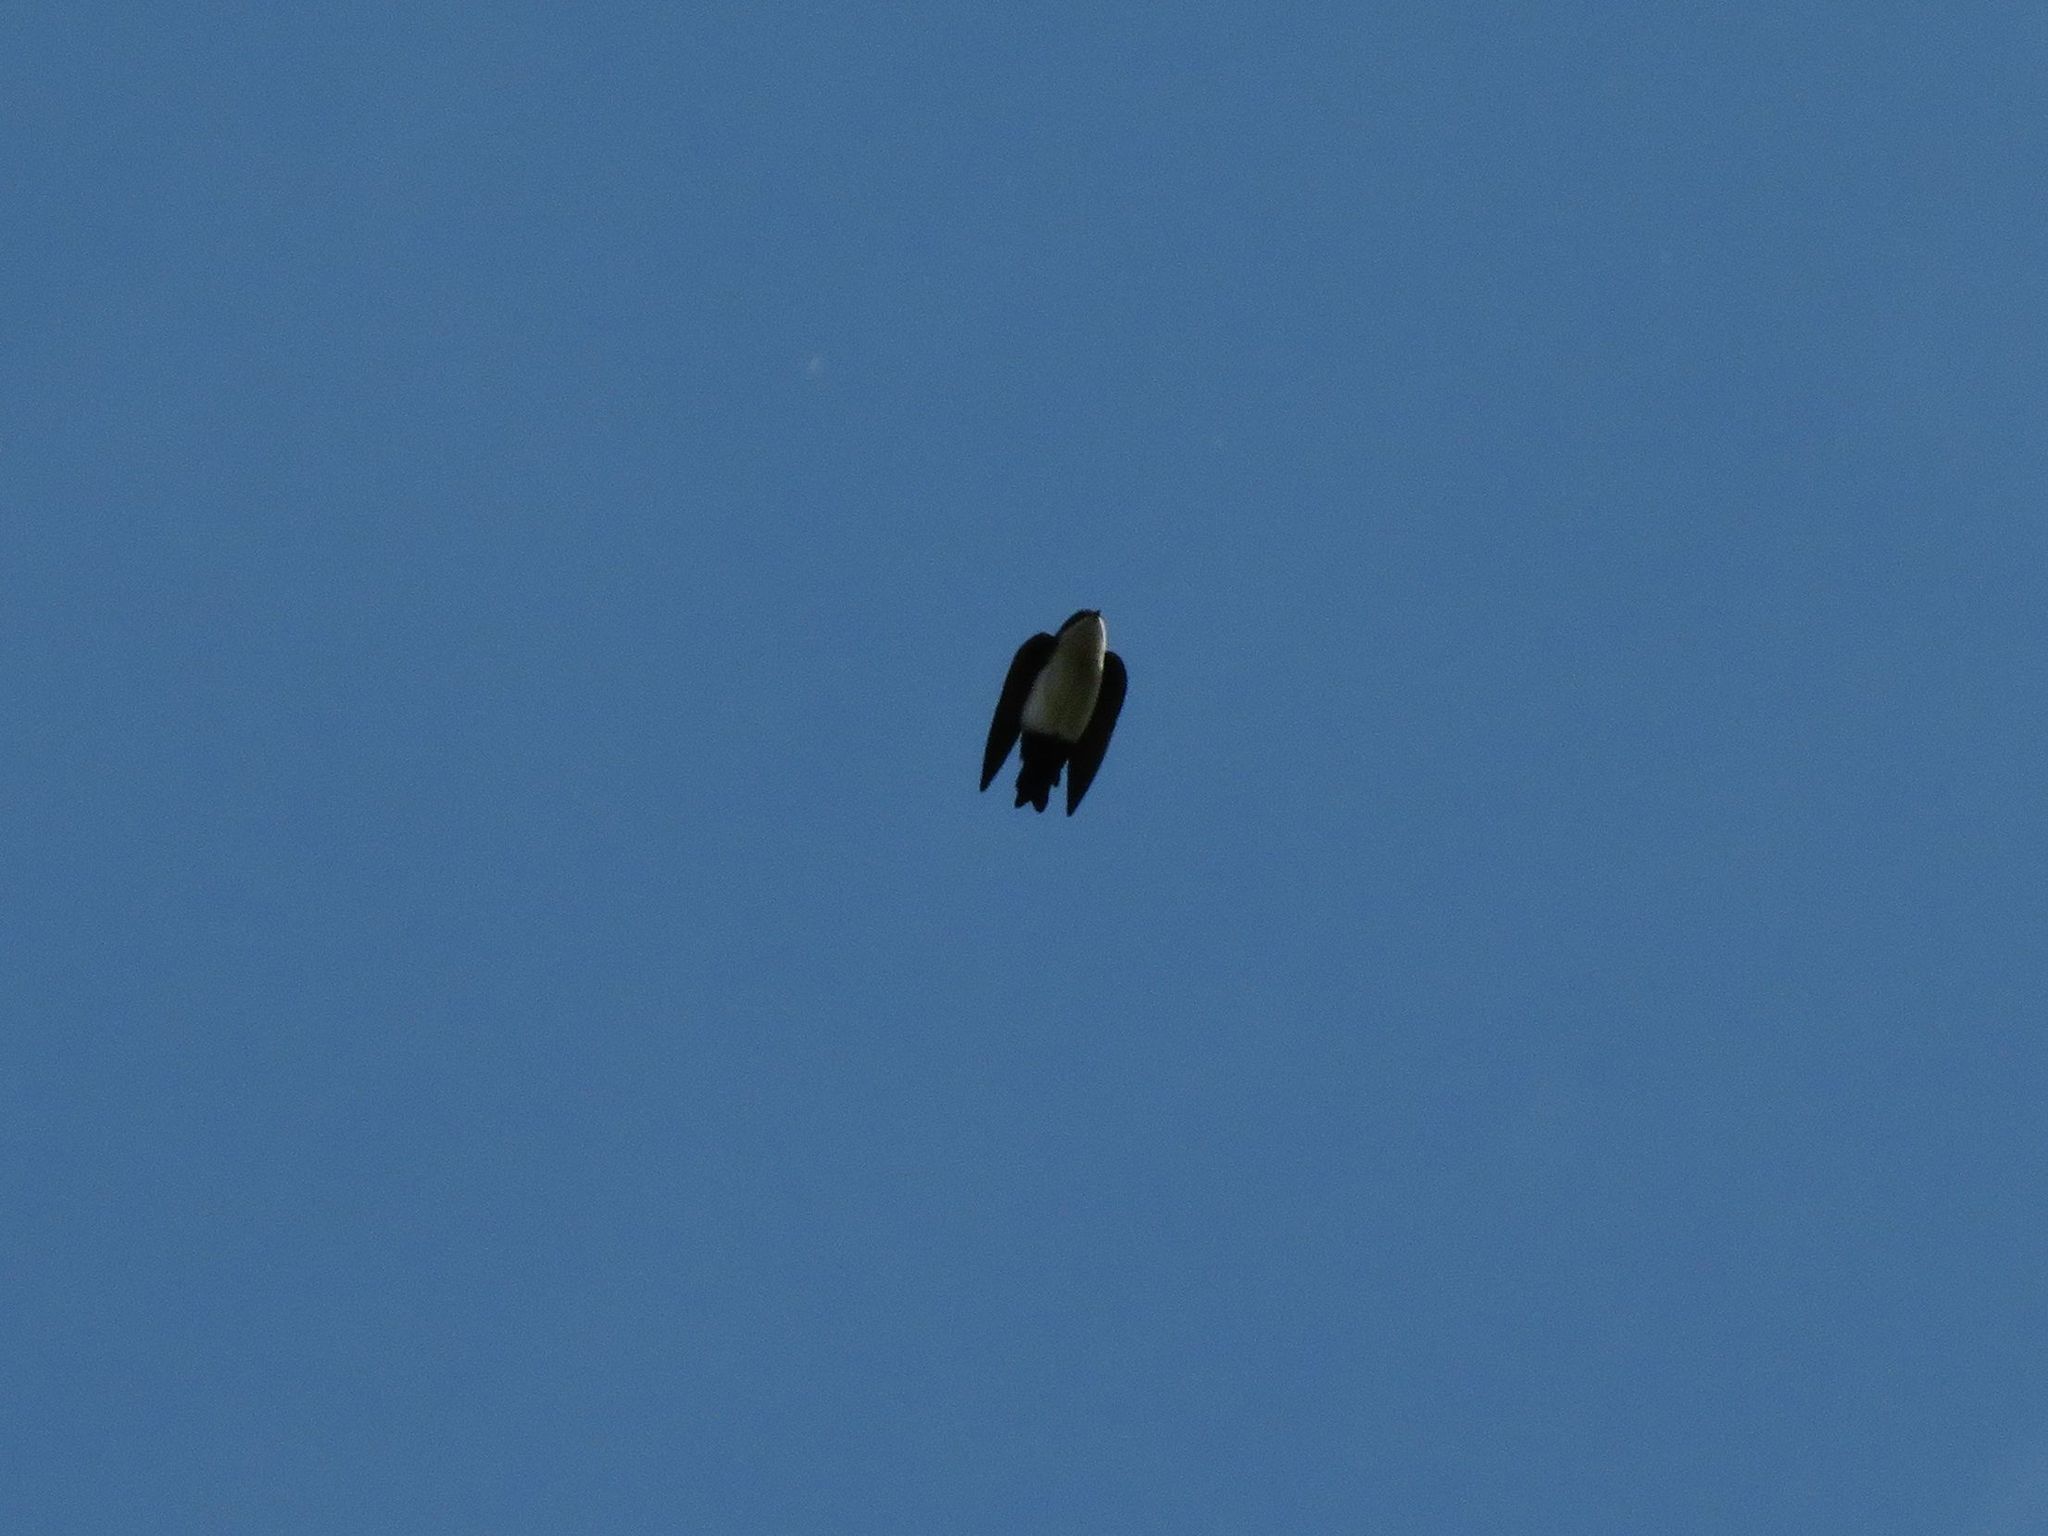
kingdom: Animalia
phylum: Chordata
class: Aves
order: Passeriformes
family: Hirundinidae
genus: Notiochelidon
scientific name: Notiochelidon cyanoleuca
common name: Blue-and-white swallow
